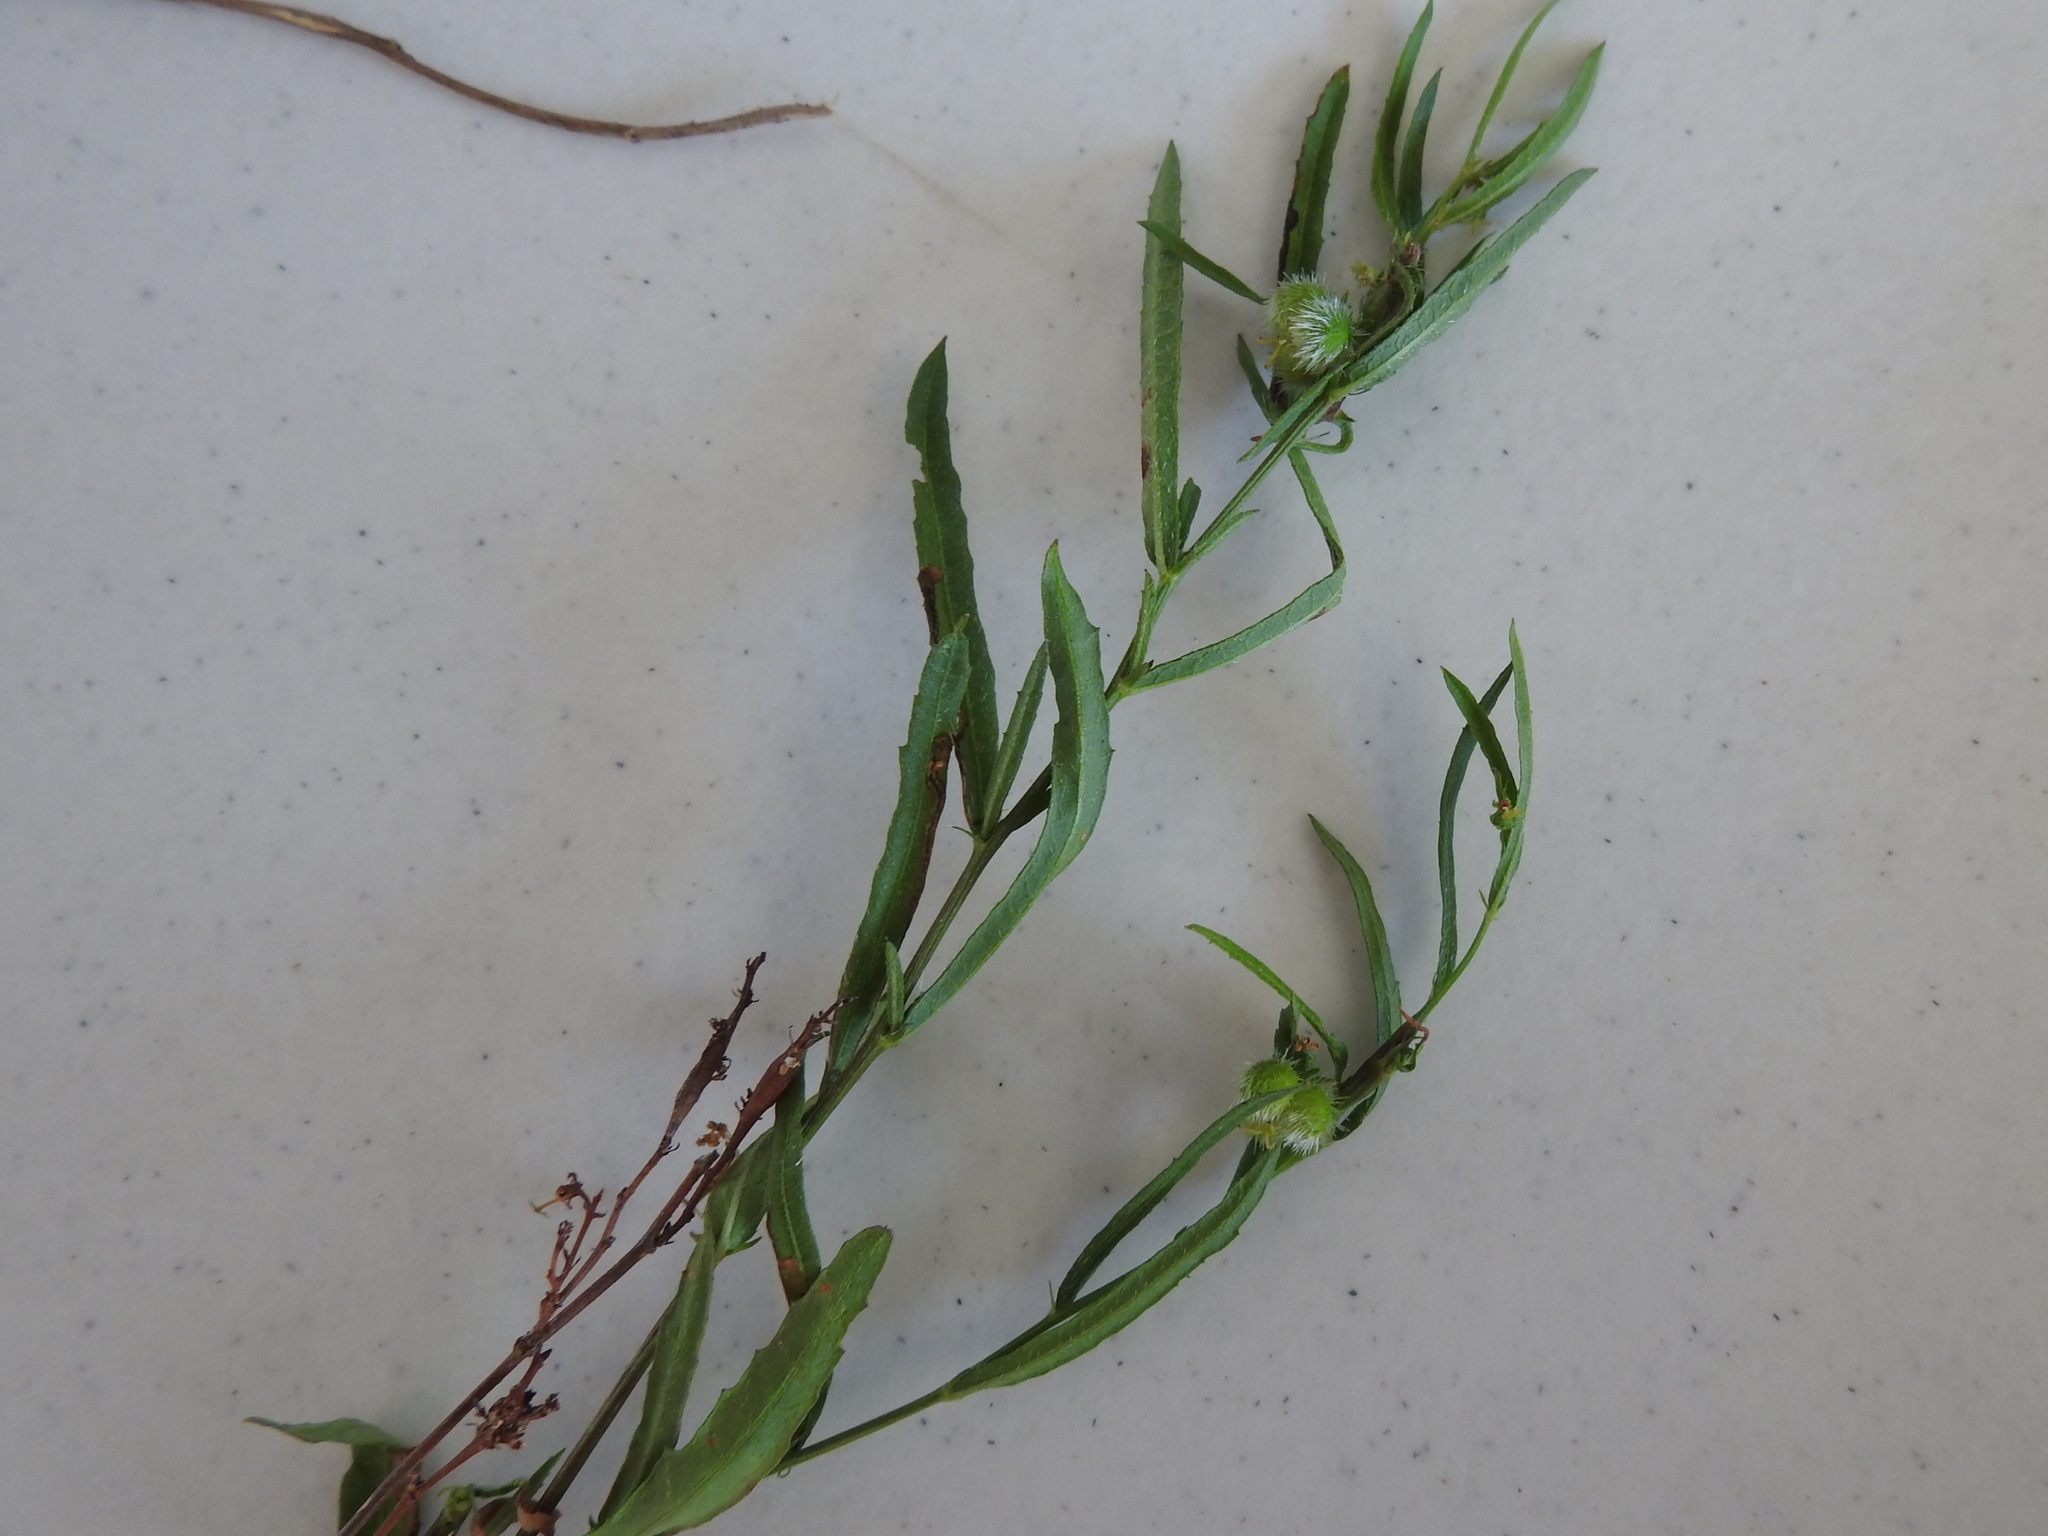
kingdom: Plantae
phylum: Tracheophyta
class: Magnoliopsida
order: Malpighiales
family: Euphorbiaceae
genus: Tragia
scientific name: Tragia leptophylla
